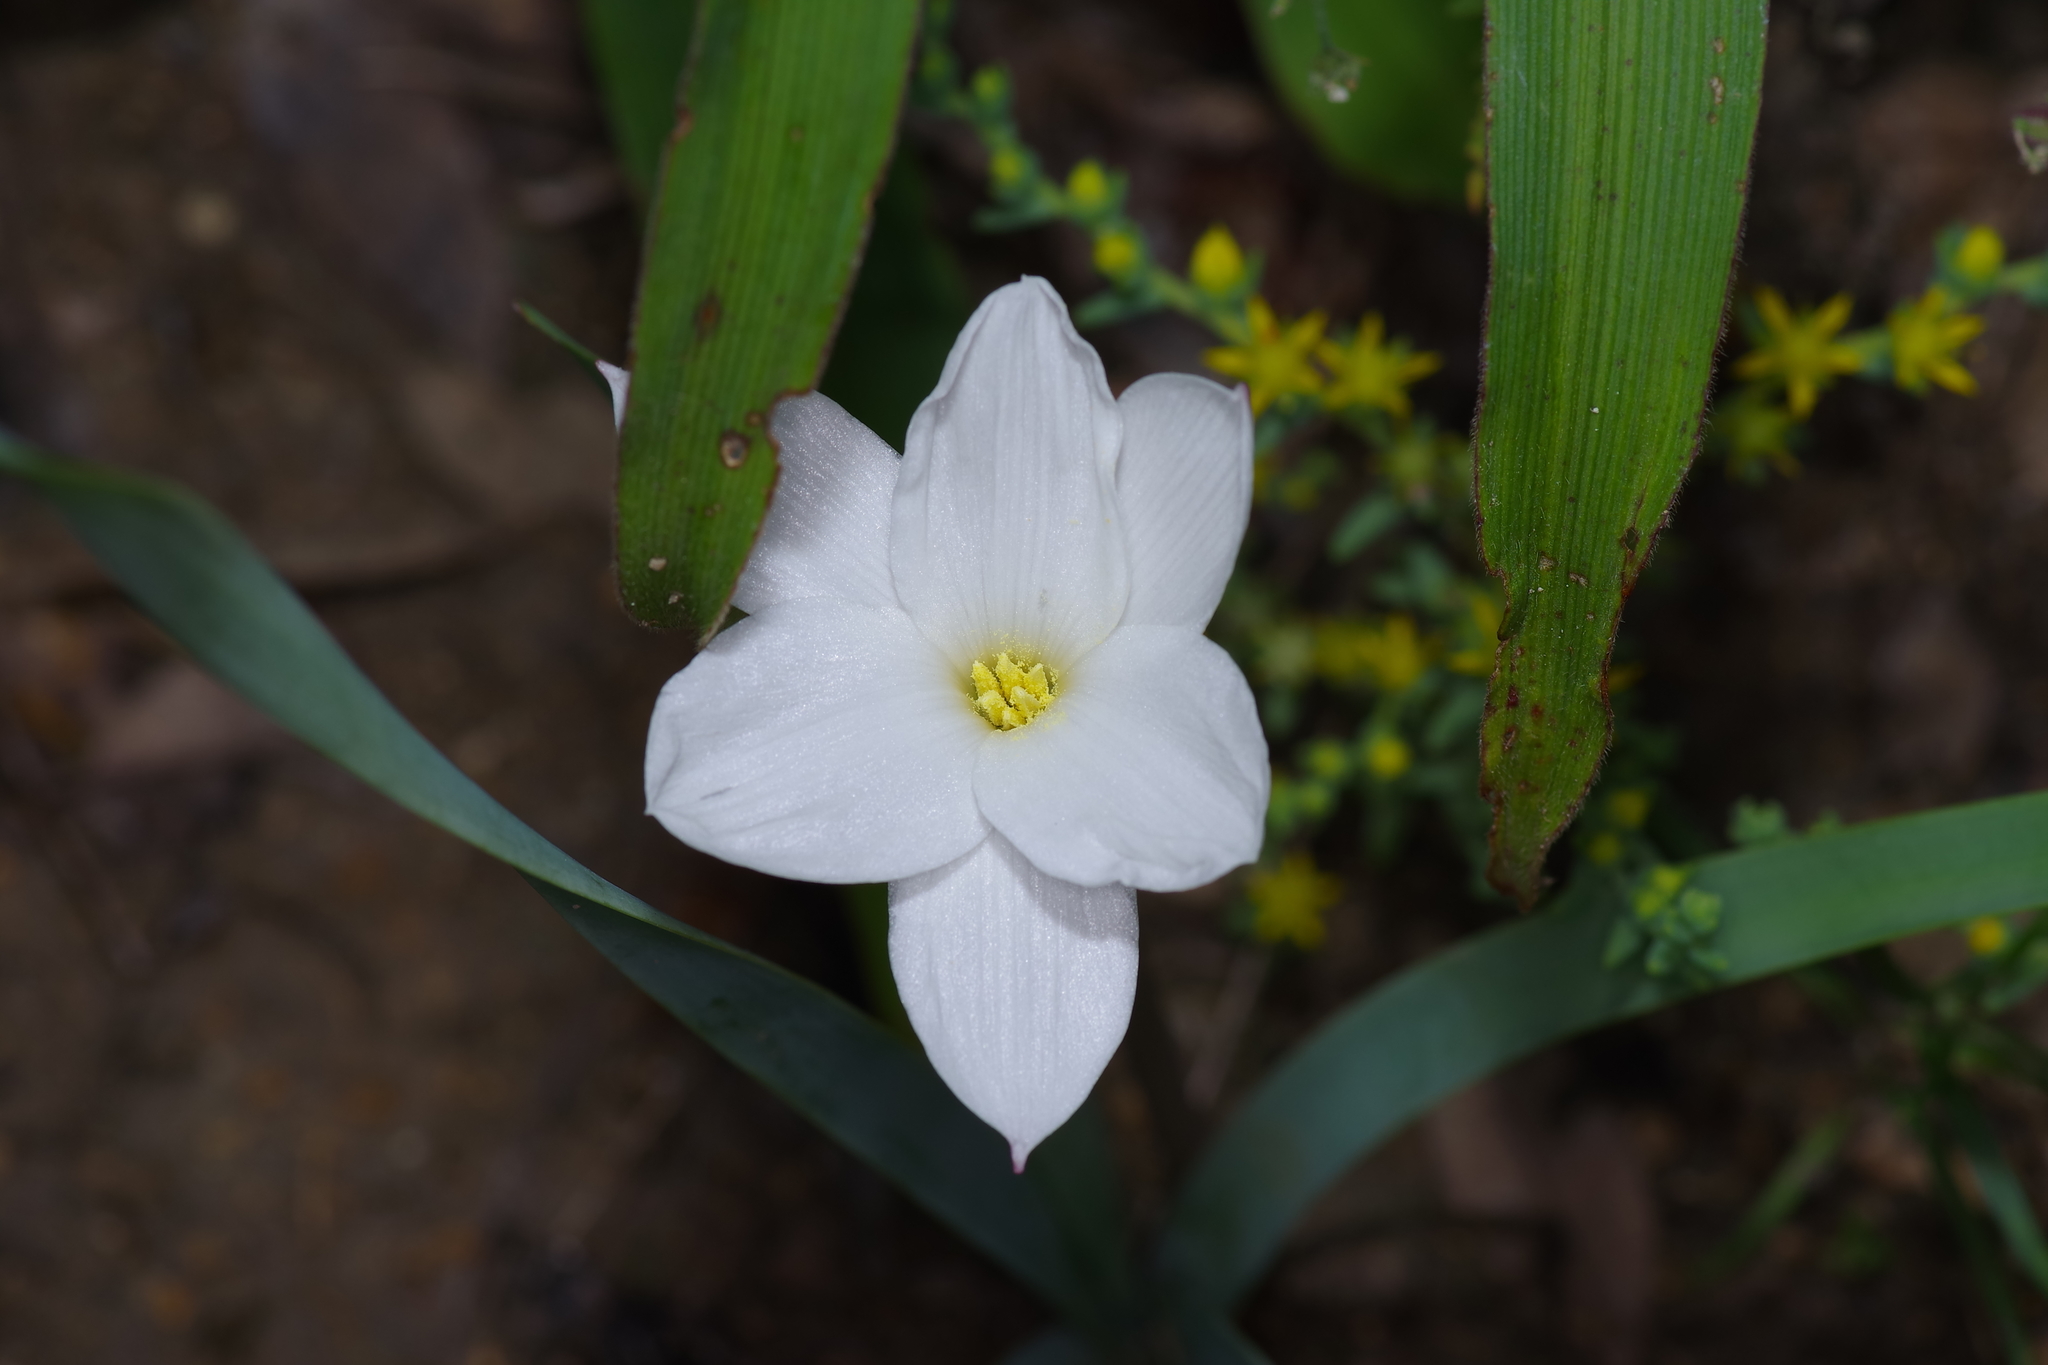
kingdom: Plantae
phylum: Tracheophyta
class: Liliopsida
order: Asparagales
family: Amaryllidaceae
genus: Zephyranthes
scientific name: Zephyranthes chlorosolen
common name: Evening rain-lily
